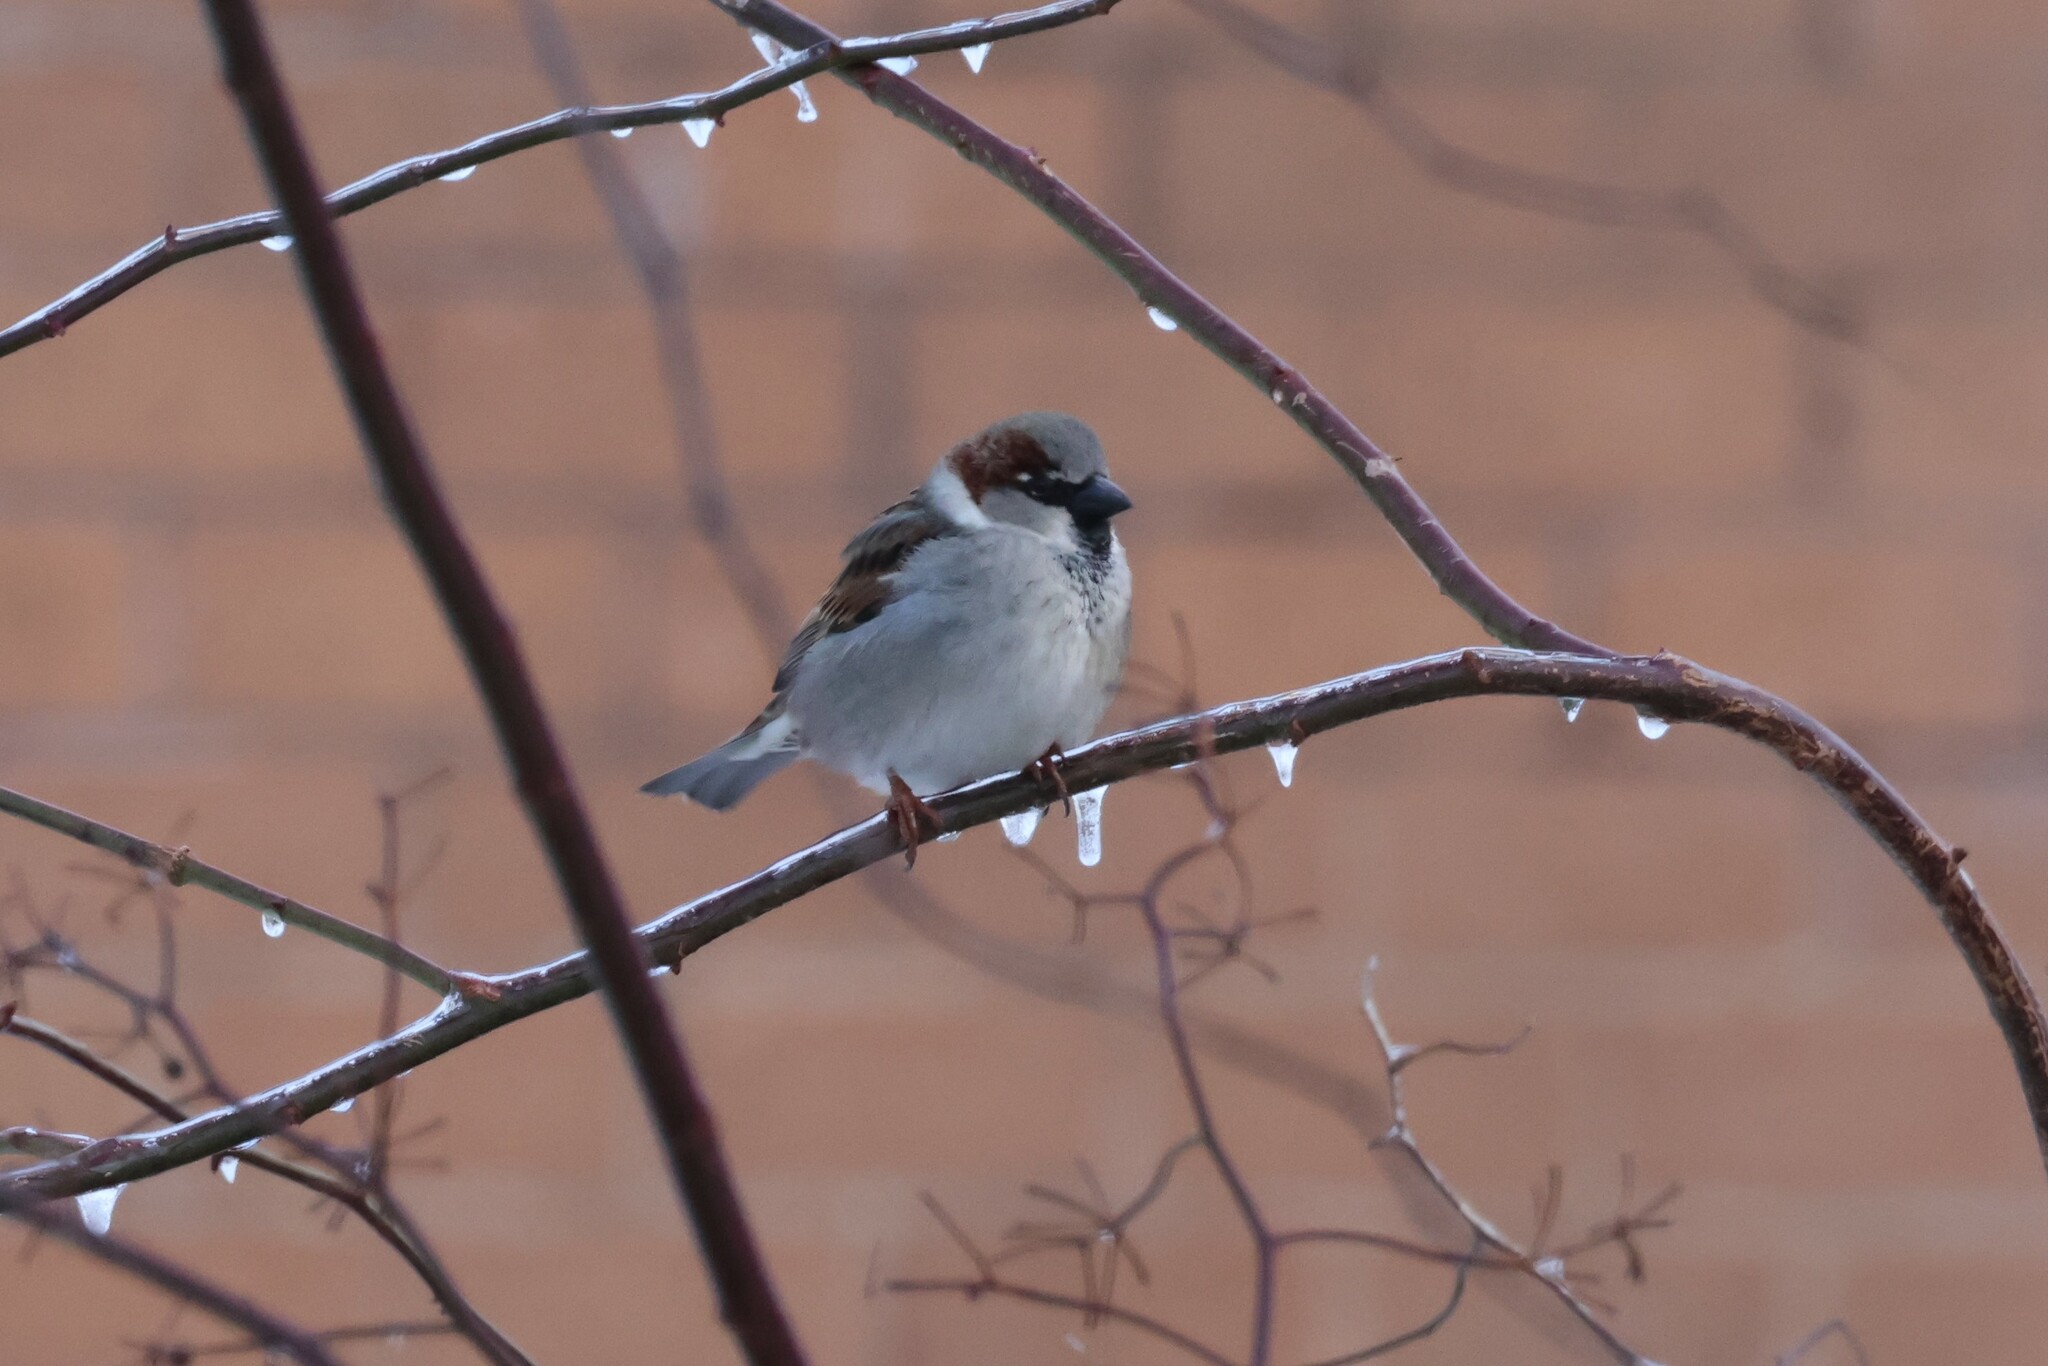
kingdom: Animalia
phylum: Chordata
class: Aves
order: Passeriformes
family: Passeridae
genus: Passer
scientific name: Passer domesticus
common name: House sparrow
